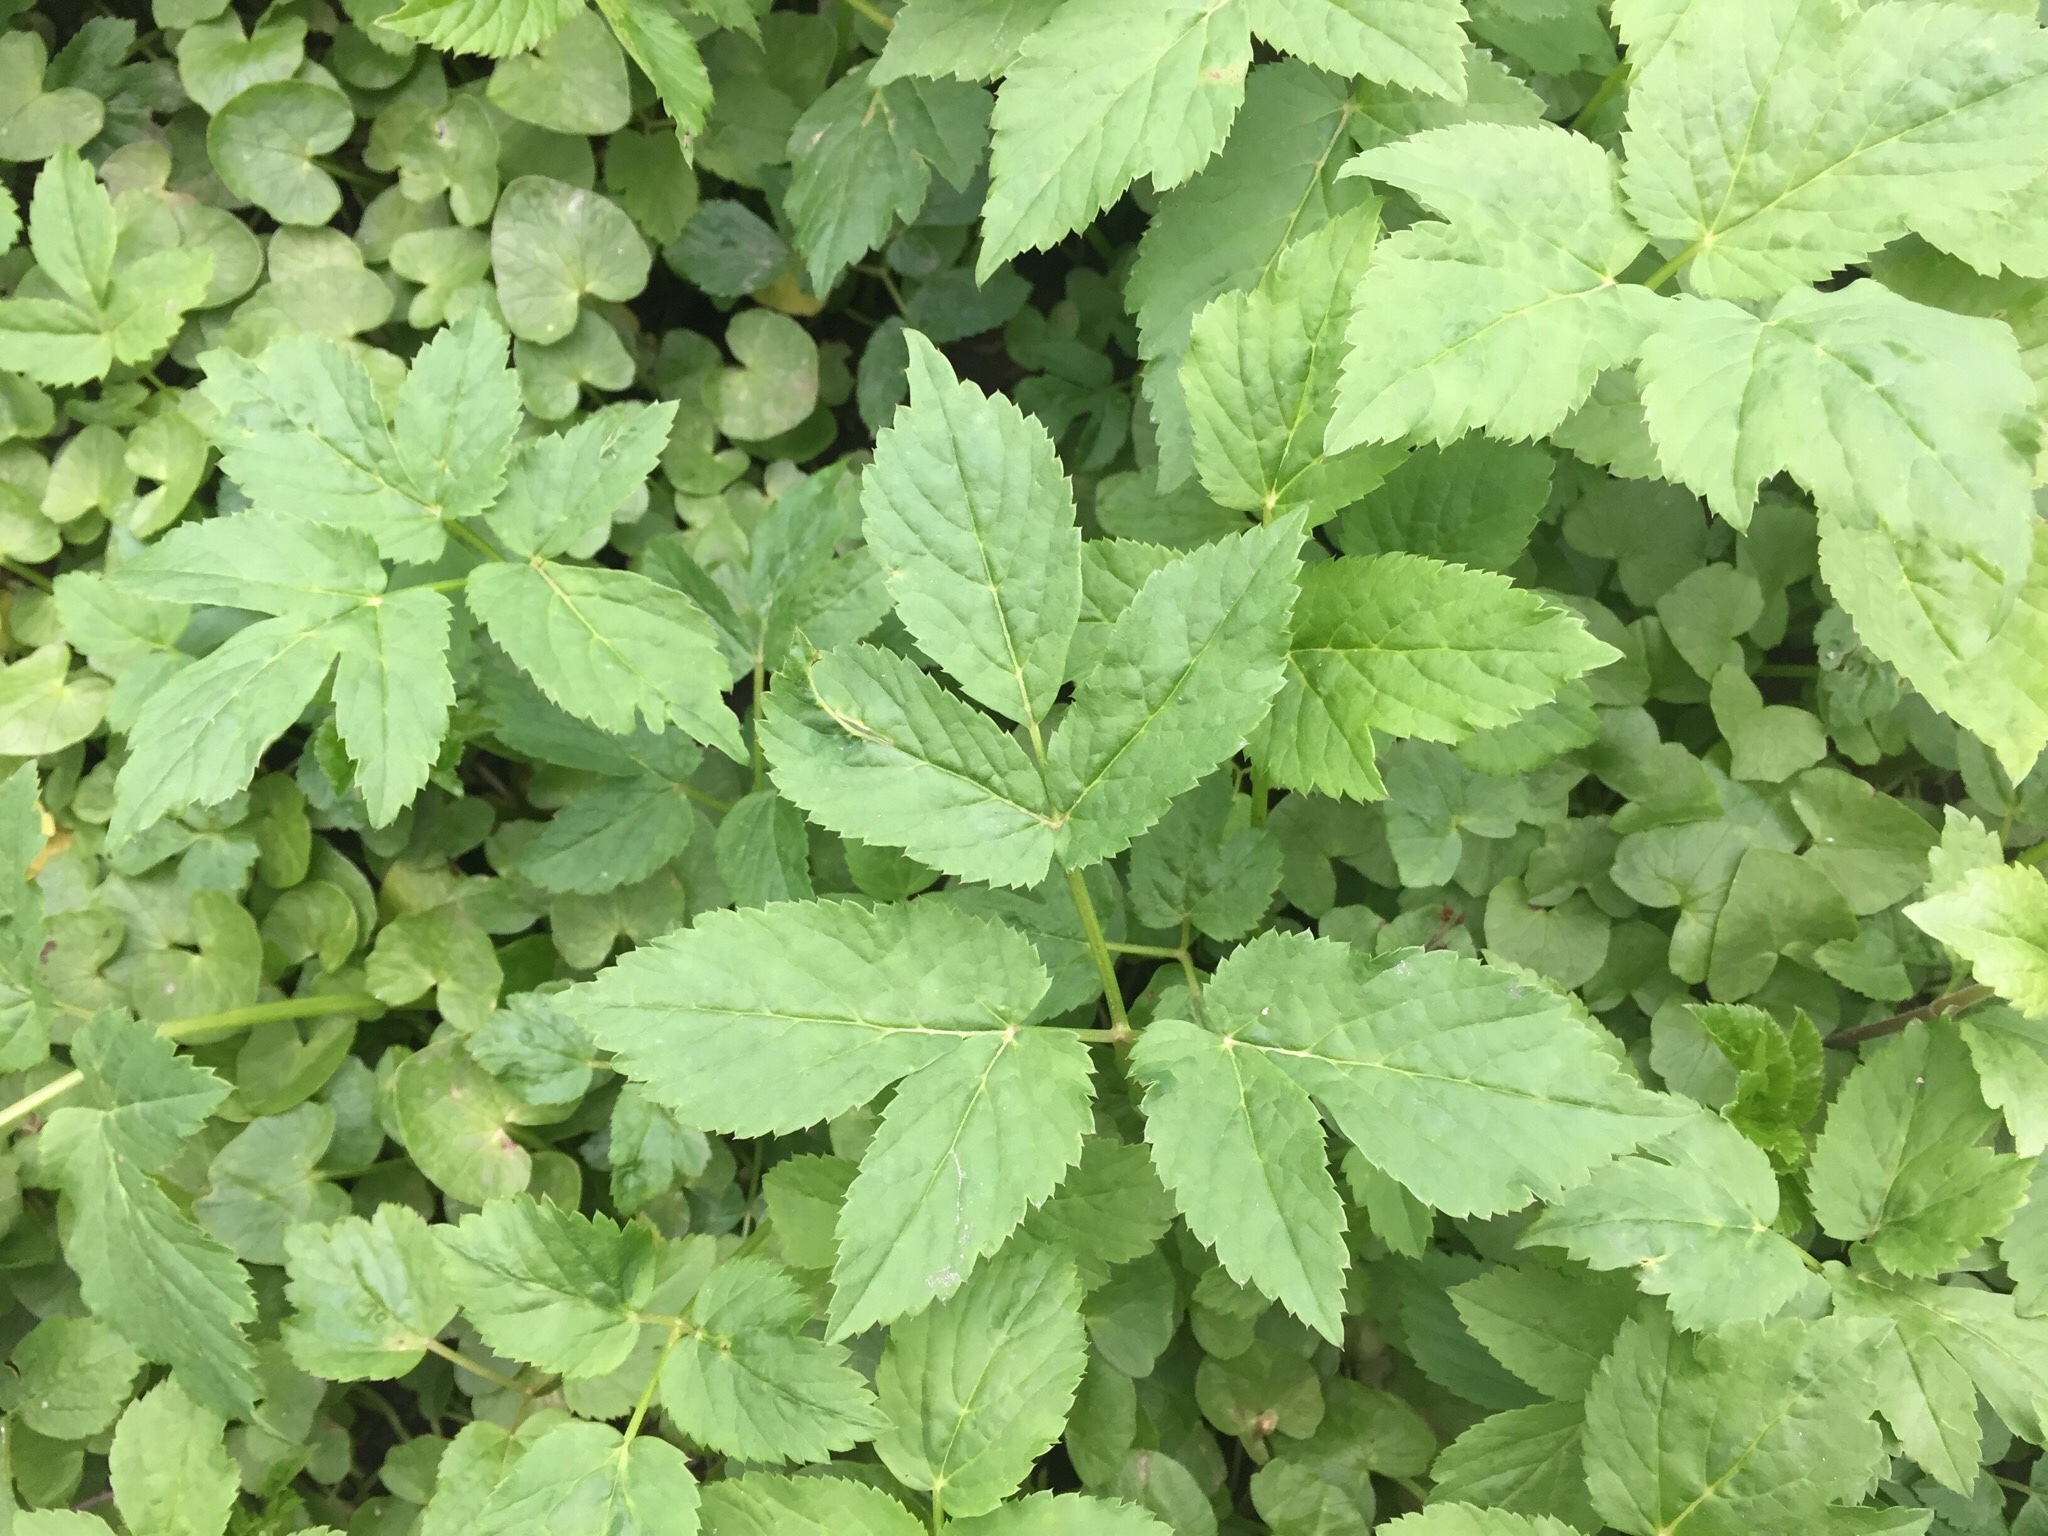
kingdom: Plantae
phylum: Tracheophyta
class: Magnoliopsida
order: Apiales
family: Apiaceae
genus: Aegopodium
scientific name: Aegopodium podagraria
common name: Ground-elder
